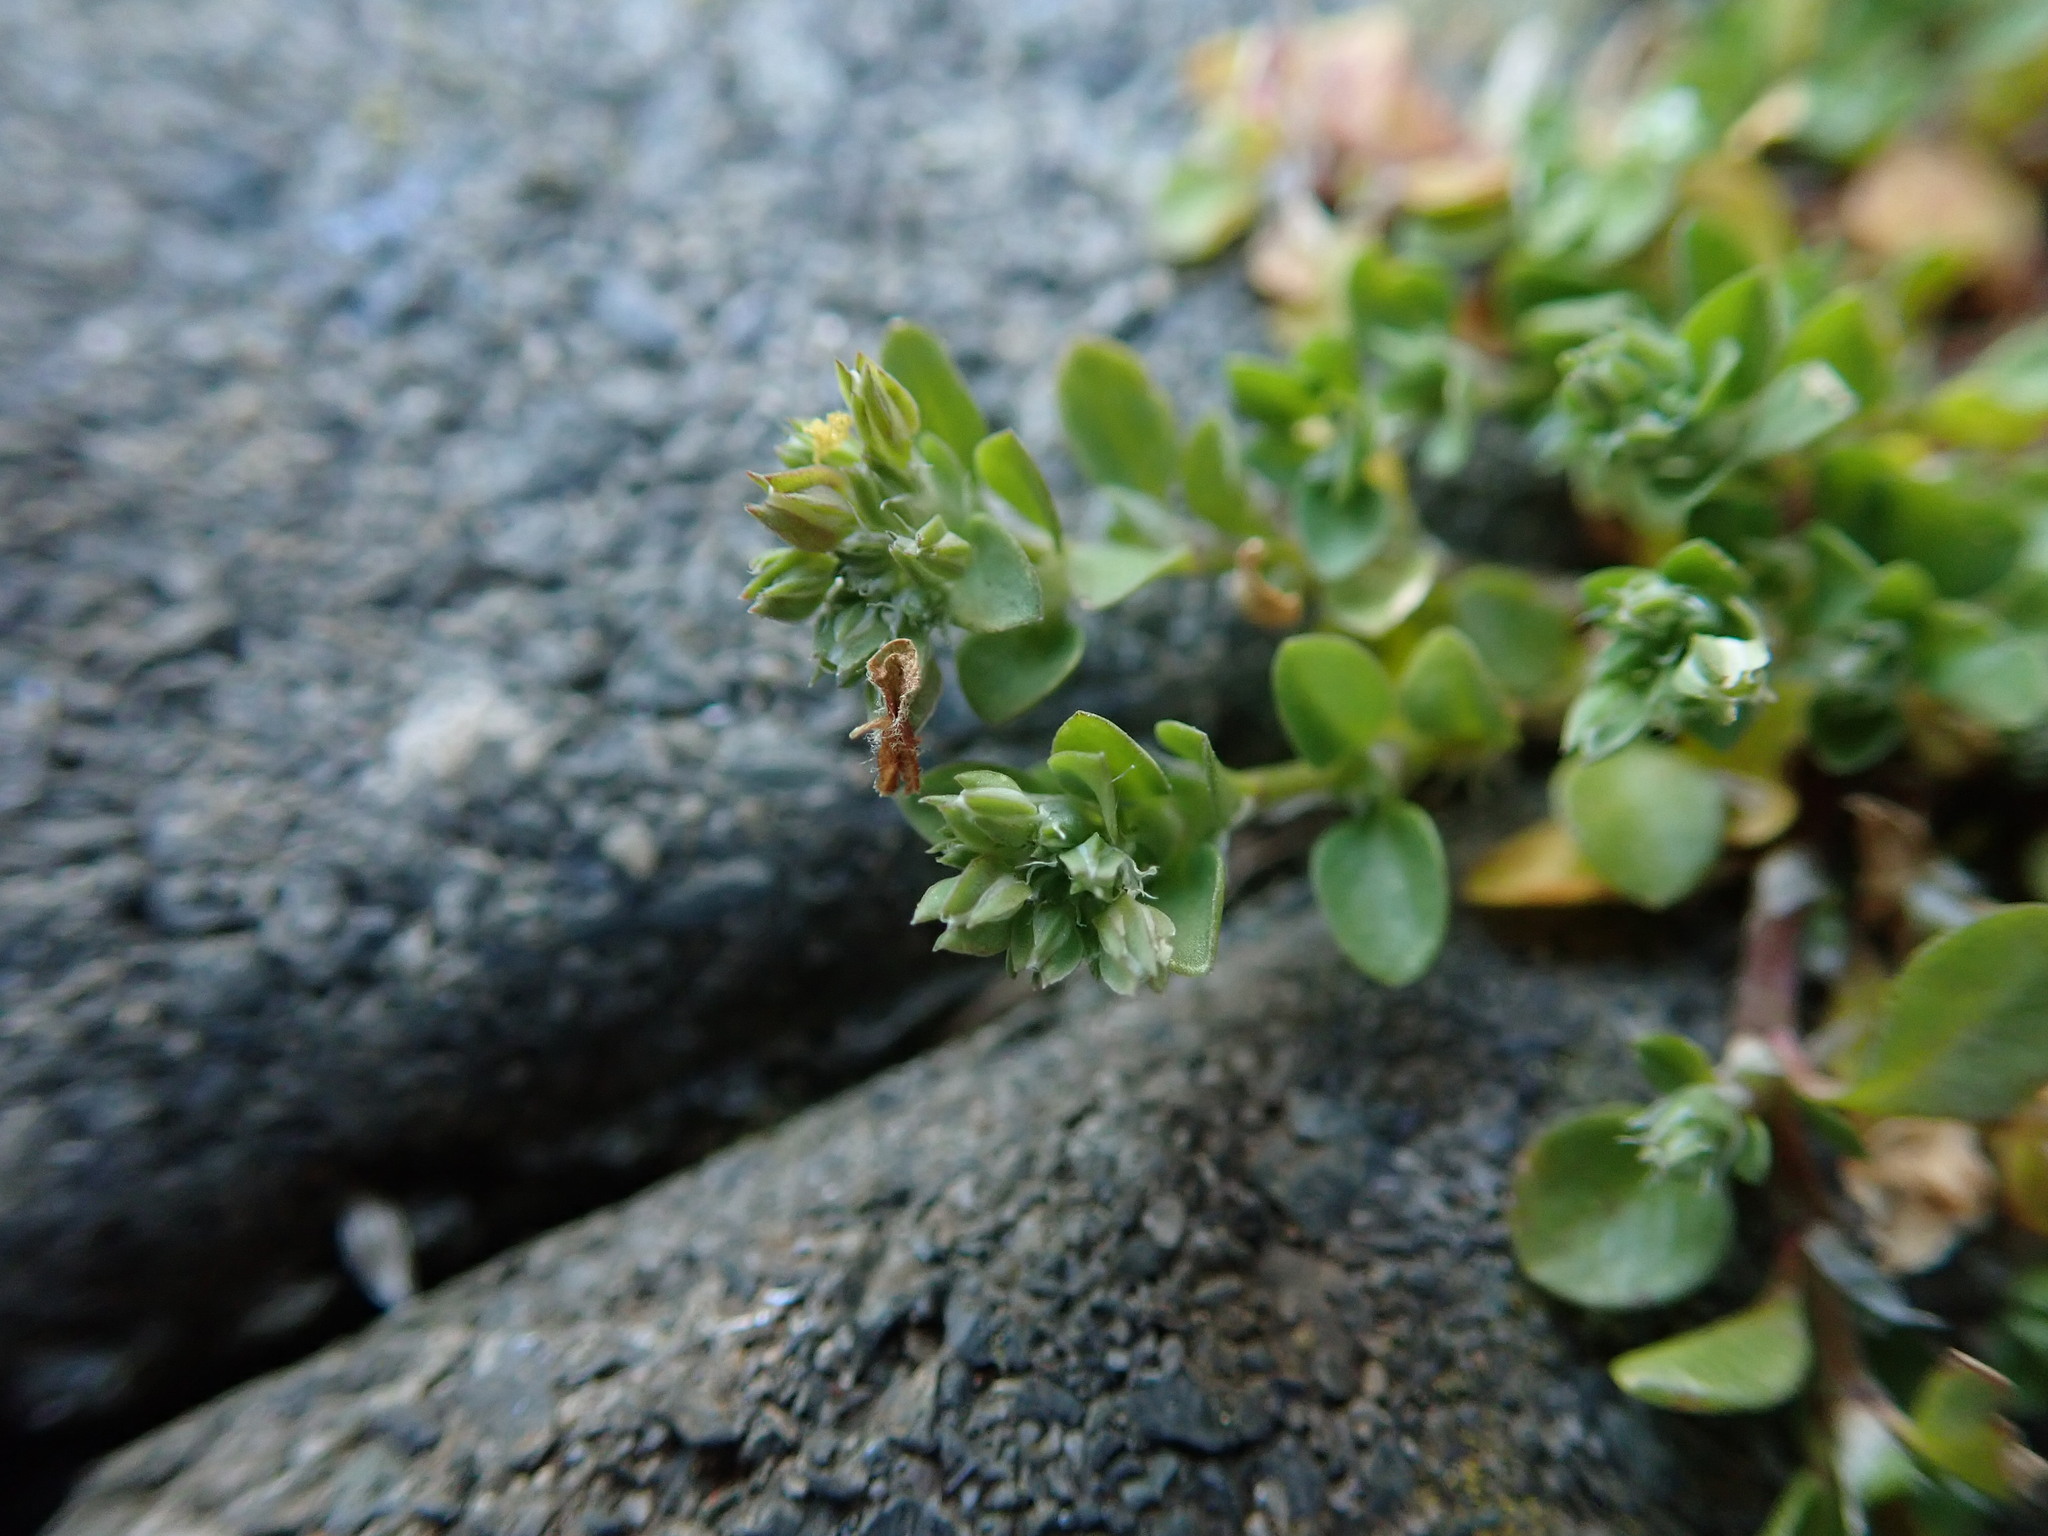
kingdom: Plantae
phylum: Tracheophyta
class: Magnoliopsida
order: Caryophyllales
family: Caryophyllaceae
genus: Polycarpon
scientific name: Polycarpon tetraphyllum
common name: Four-leaved all-seed
